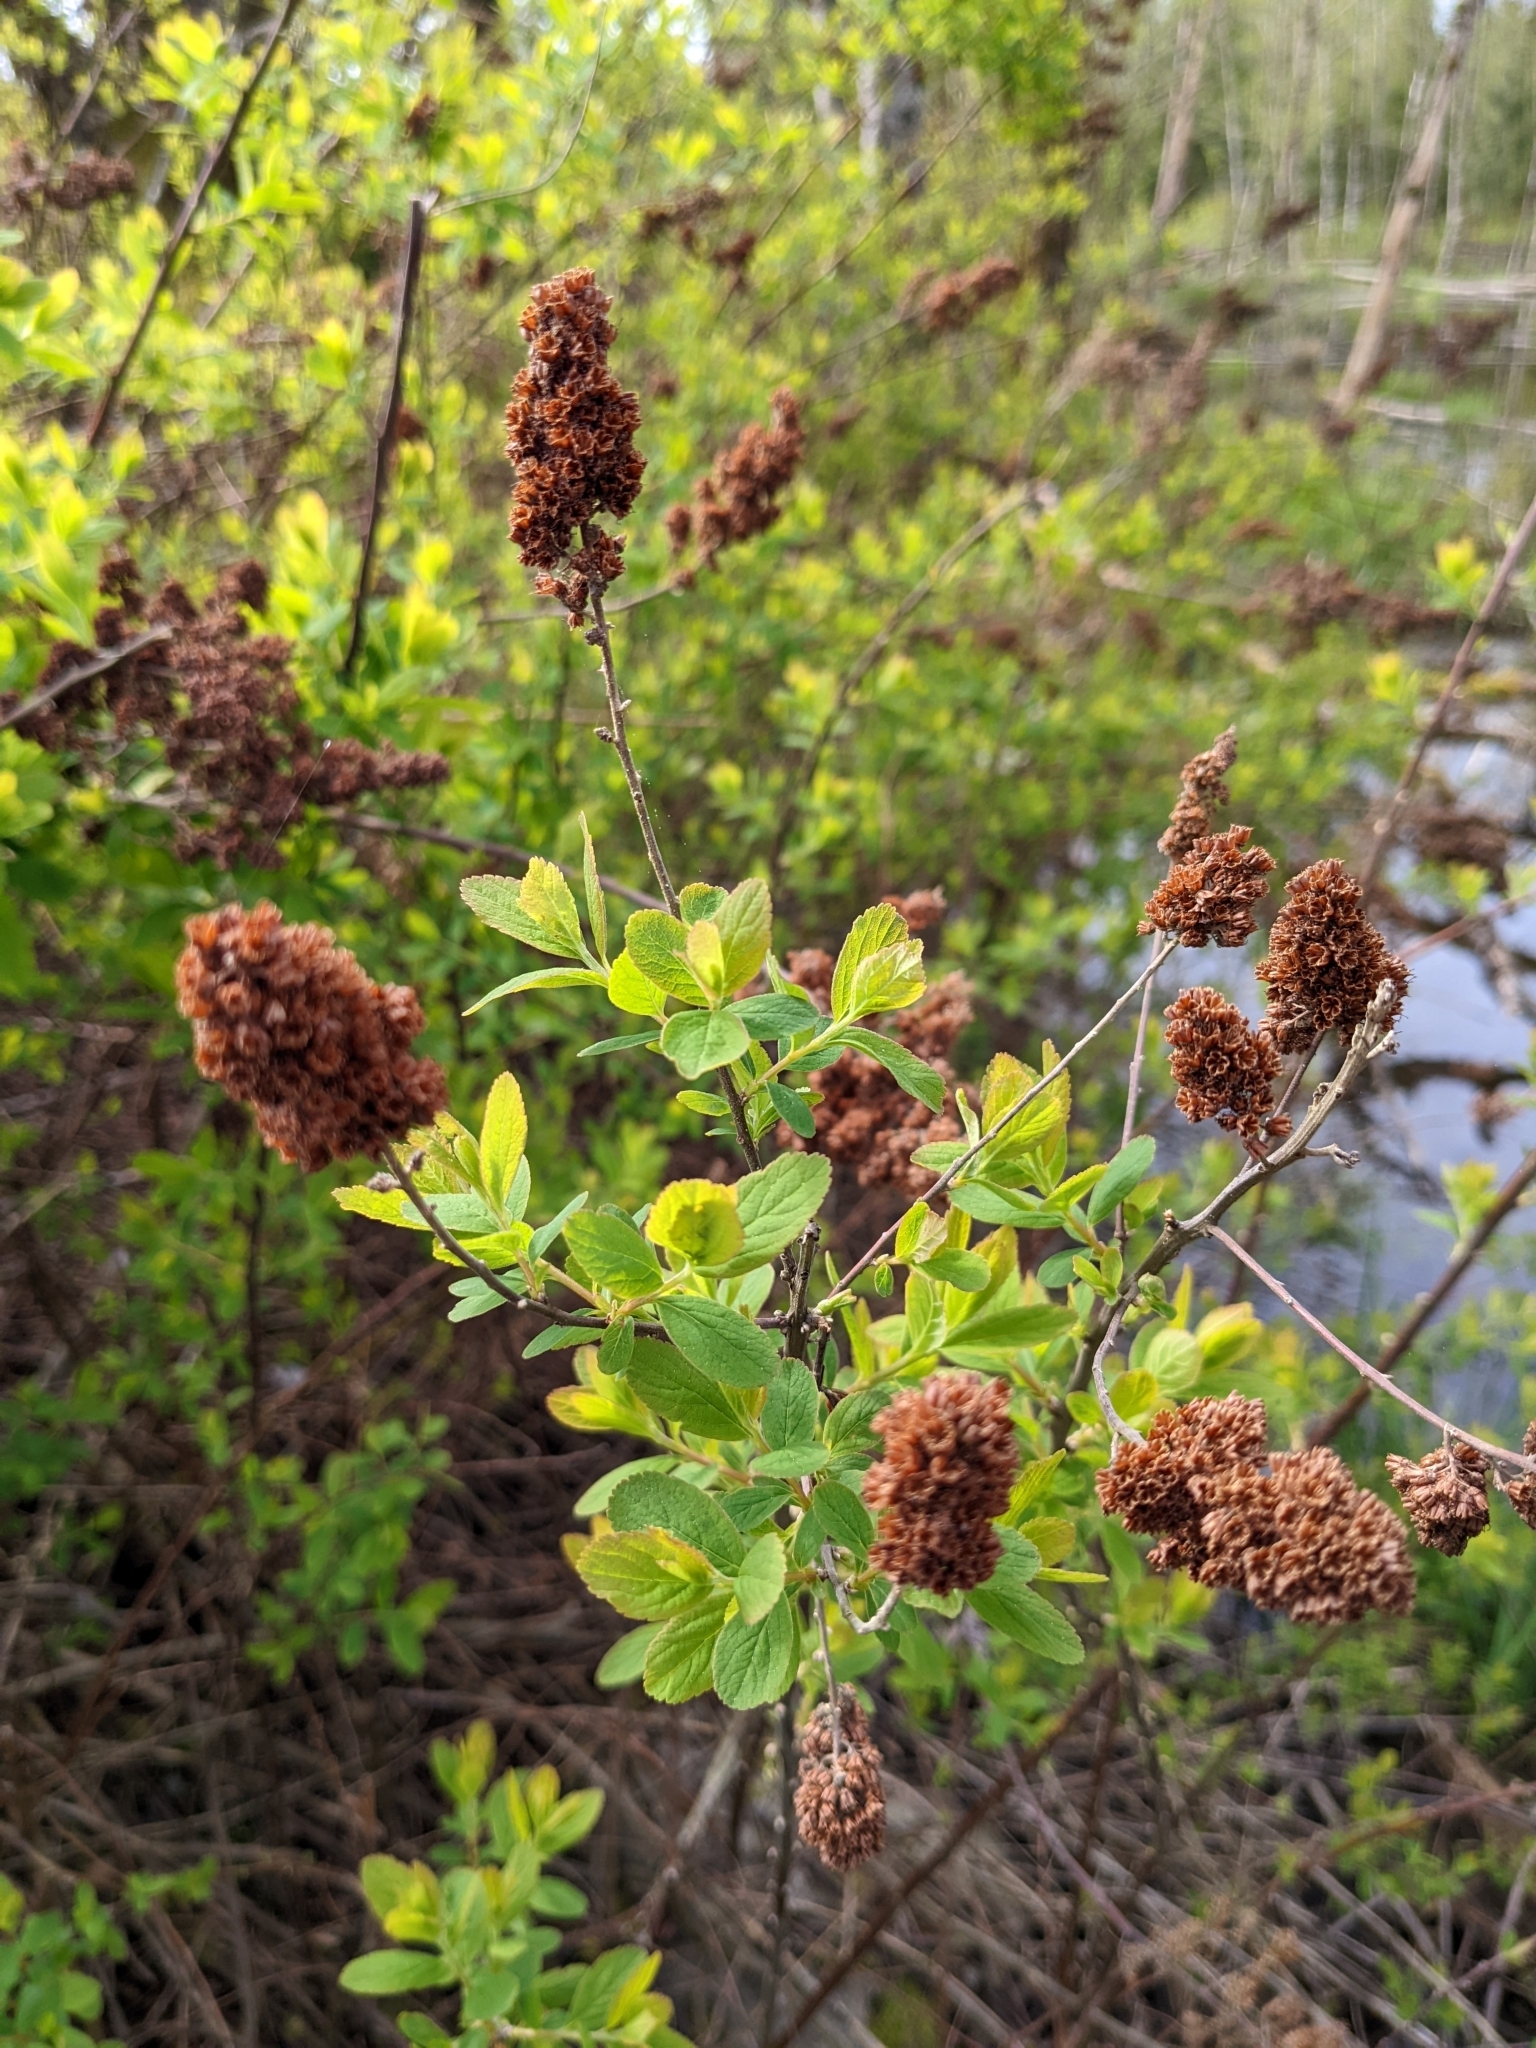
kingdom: Plantae
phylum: Tracheophyta
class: Magnoliopsida
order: Rosales
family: Rosaceae
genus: Spiraea
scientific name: Spiraea douglasii
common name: Steeplebush
